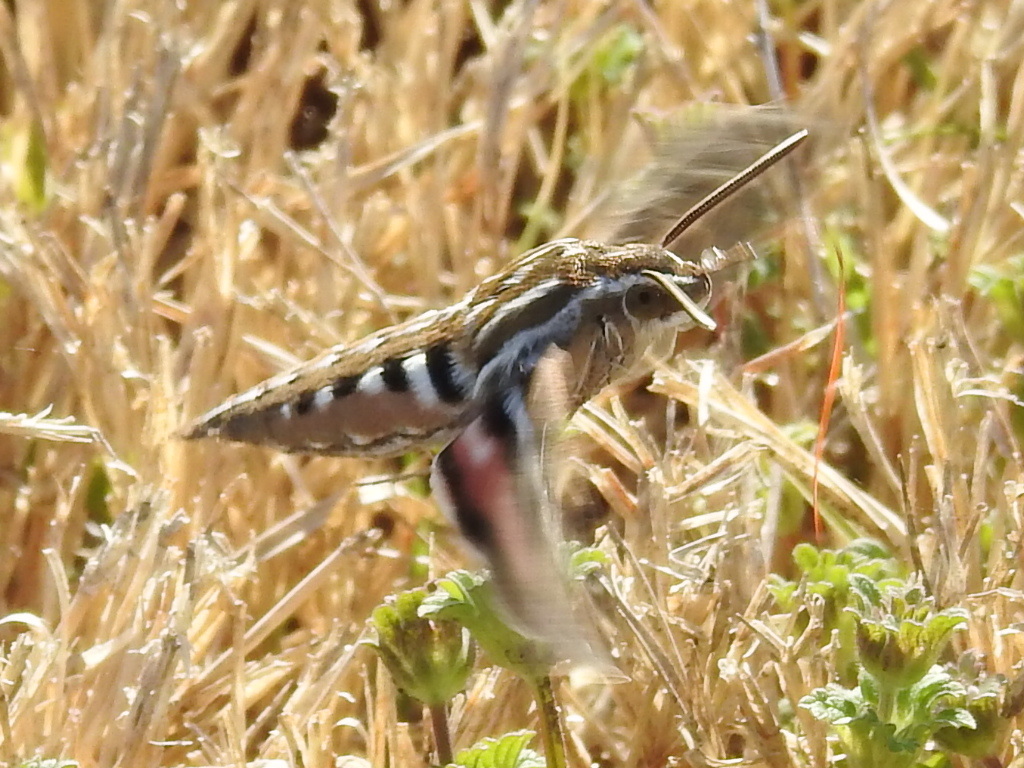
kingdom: Animalia
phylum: Arthropoda
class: Insecta
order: Lepidoptera
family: Sphingidae
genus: Hyles
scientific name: Hyles lineata
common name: White-lined sphinx
